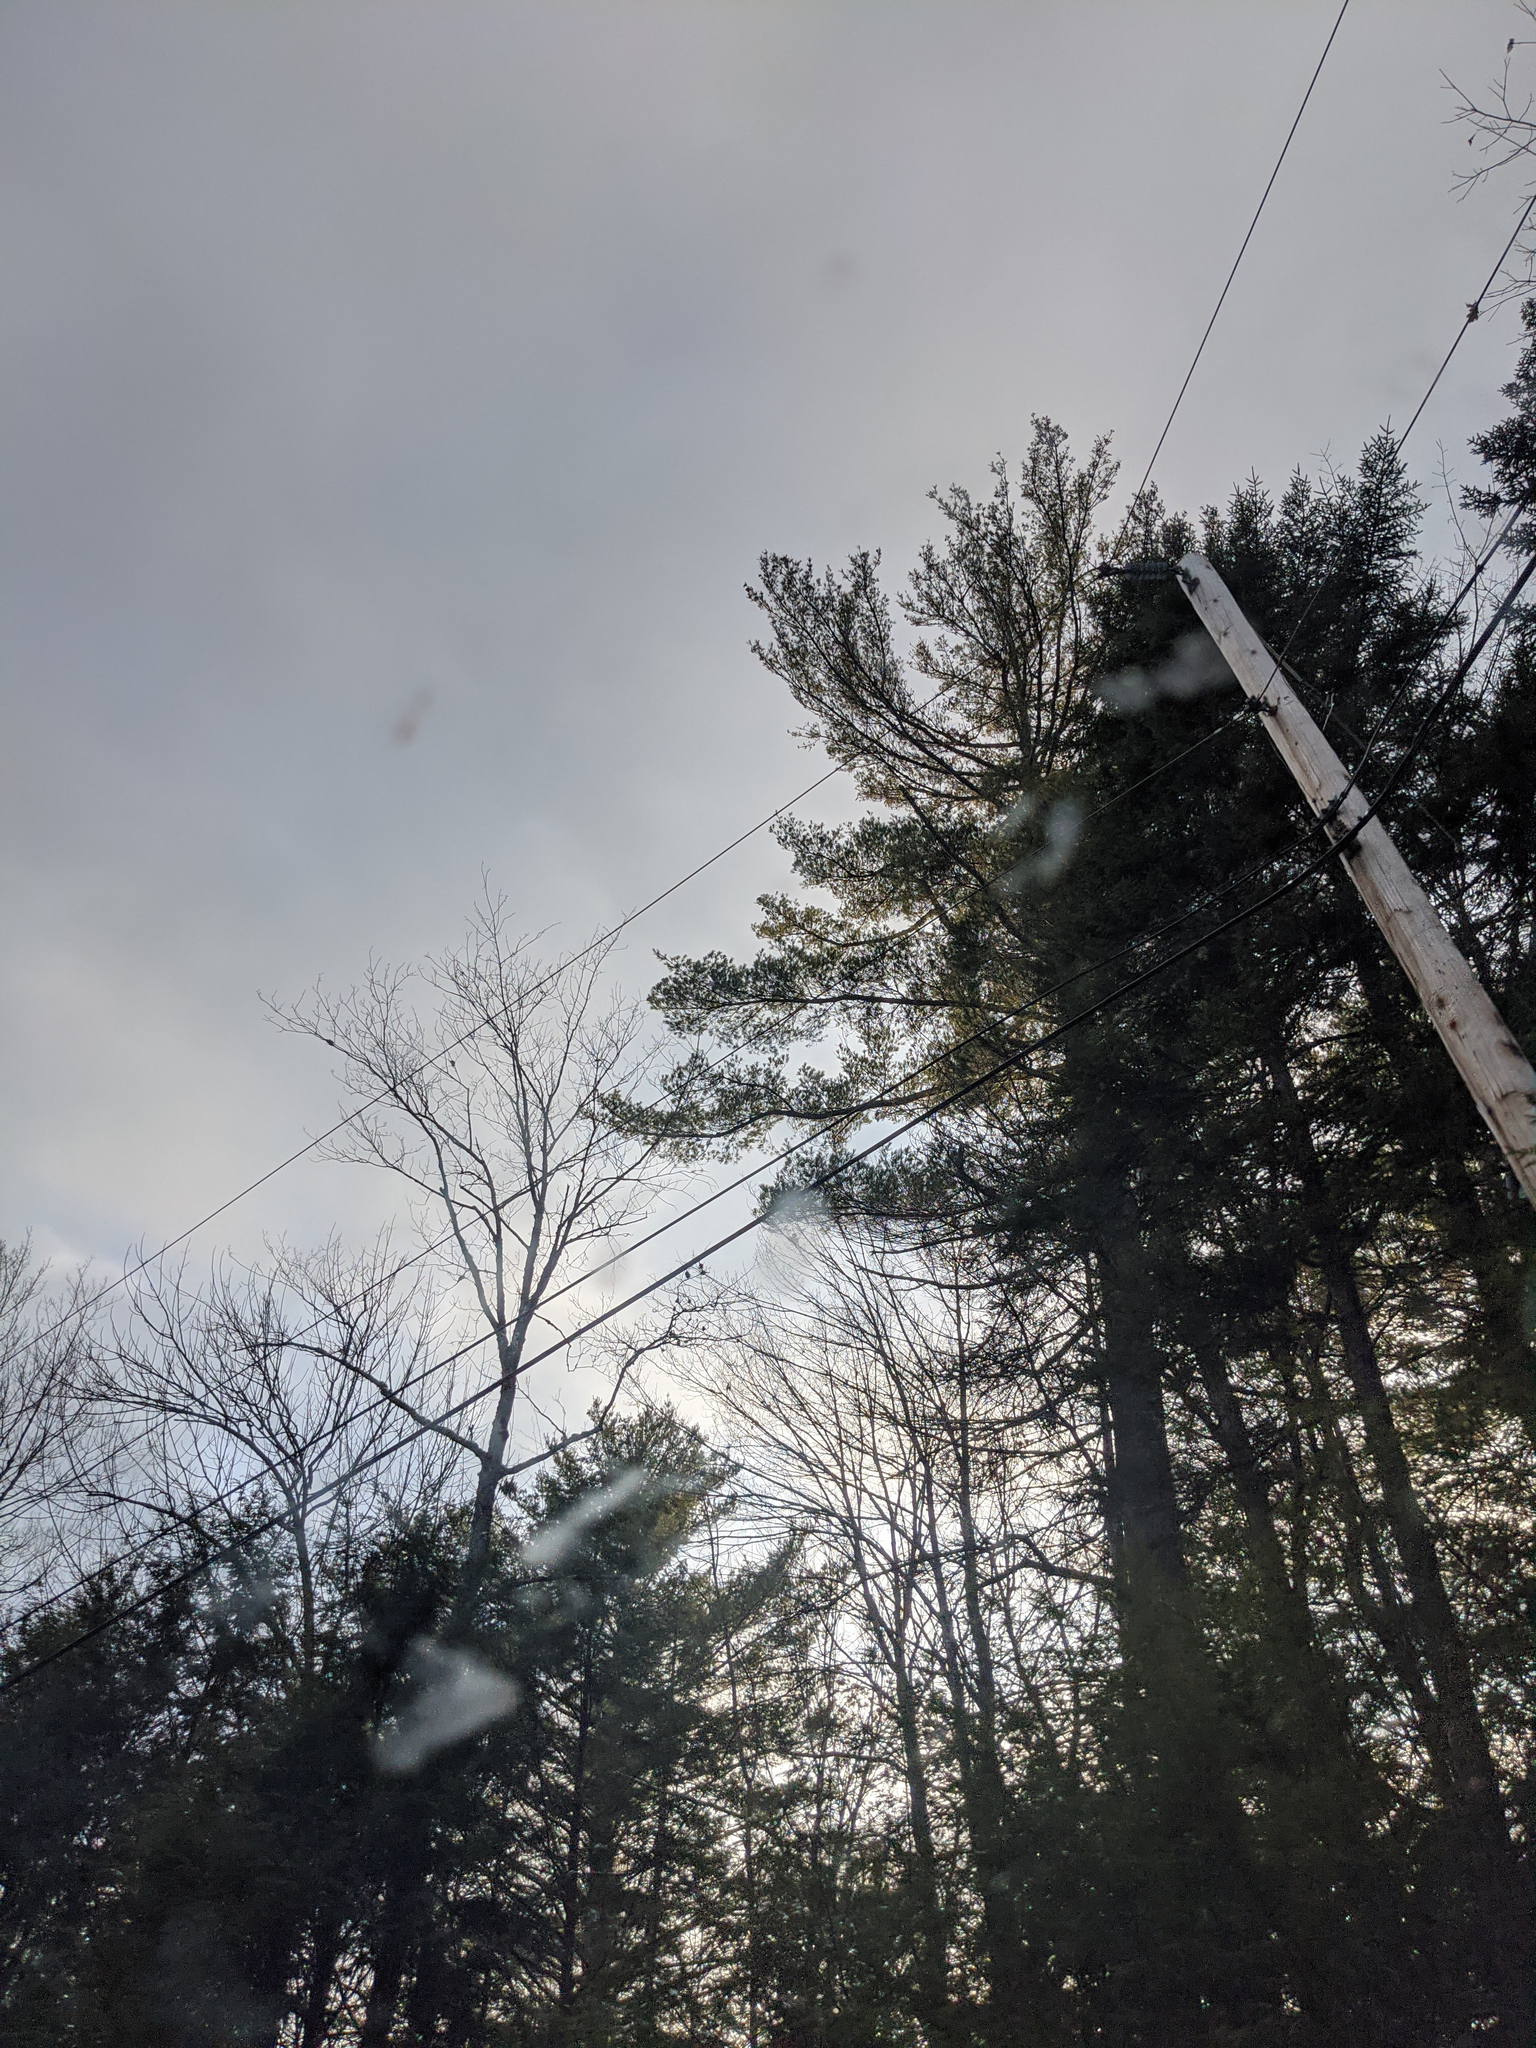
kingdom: Plantae
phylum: Tracheophyta
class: Pinopsida
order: Pinales
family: Pinaceae
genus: Pinus
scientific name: Pinus strobus
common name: Weymouth pine
